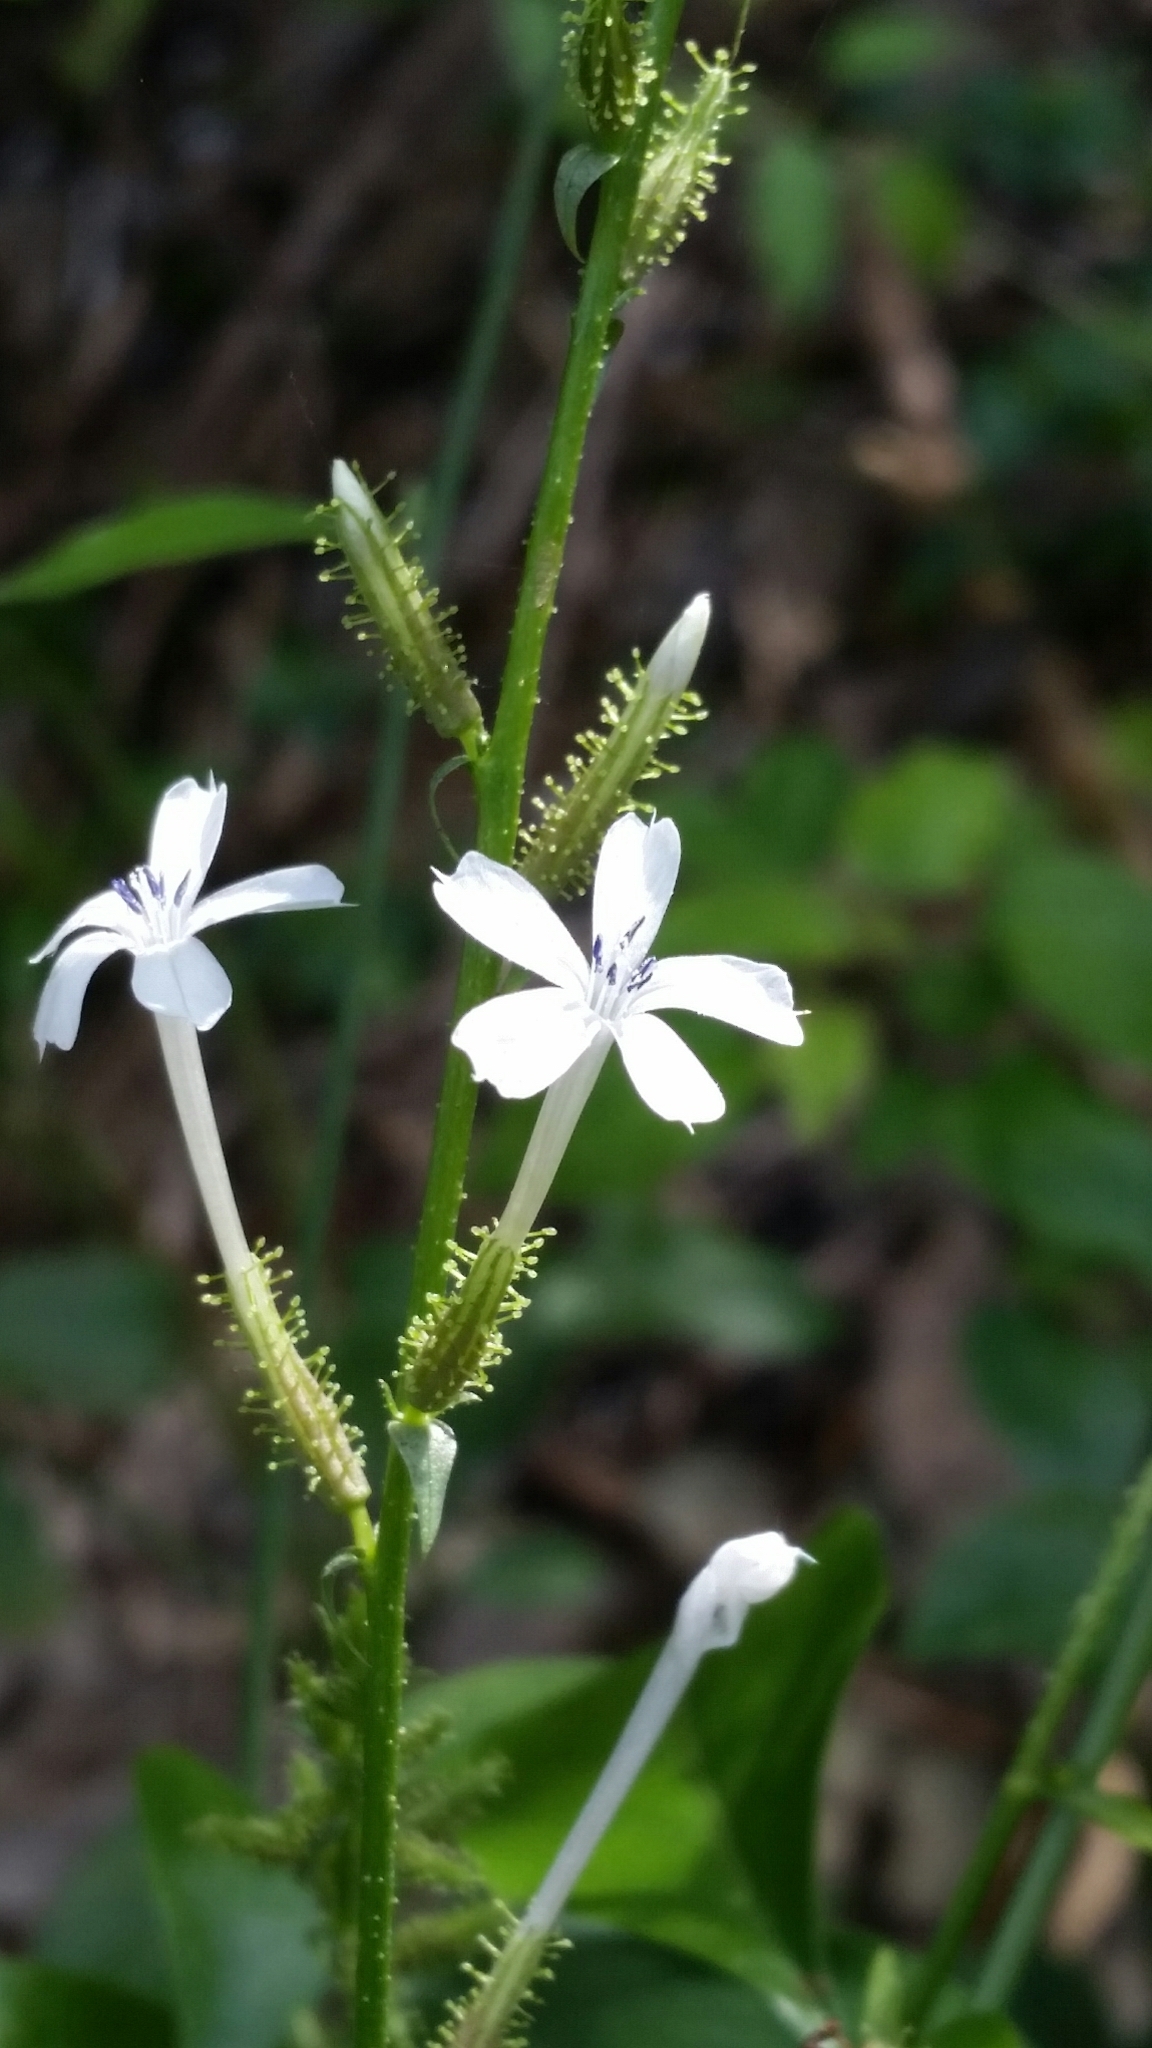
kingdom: Plantae
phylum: Tracheophyta
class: Magnoliopsida
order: Caryophyllales
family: Plumbaginaceae
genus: Plumbago
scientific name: Plumbago zeylanica
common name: Doctorbush
